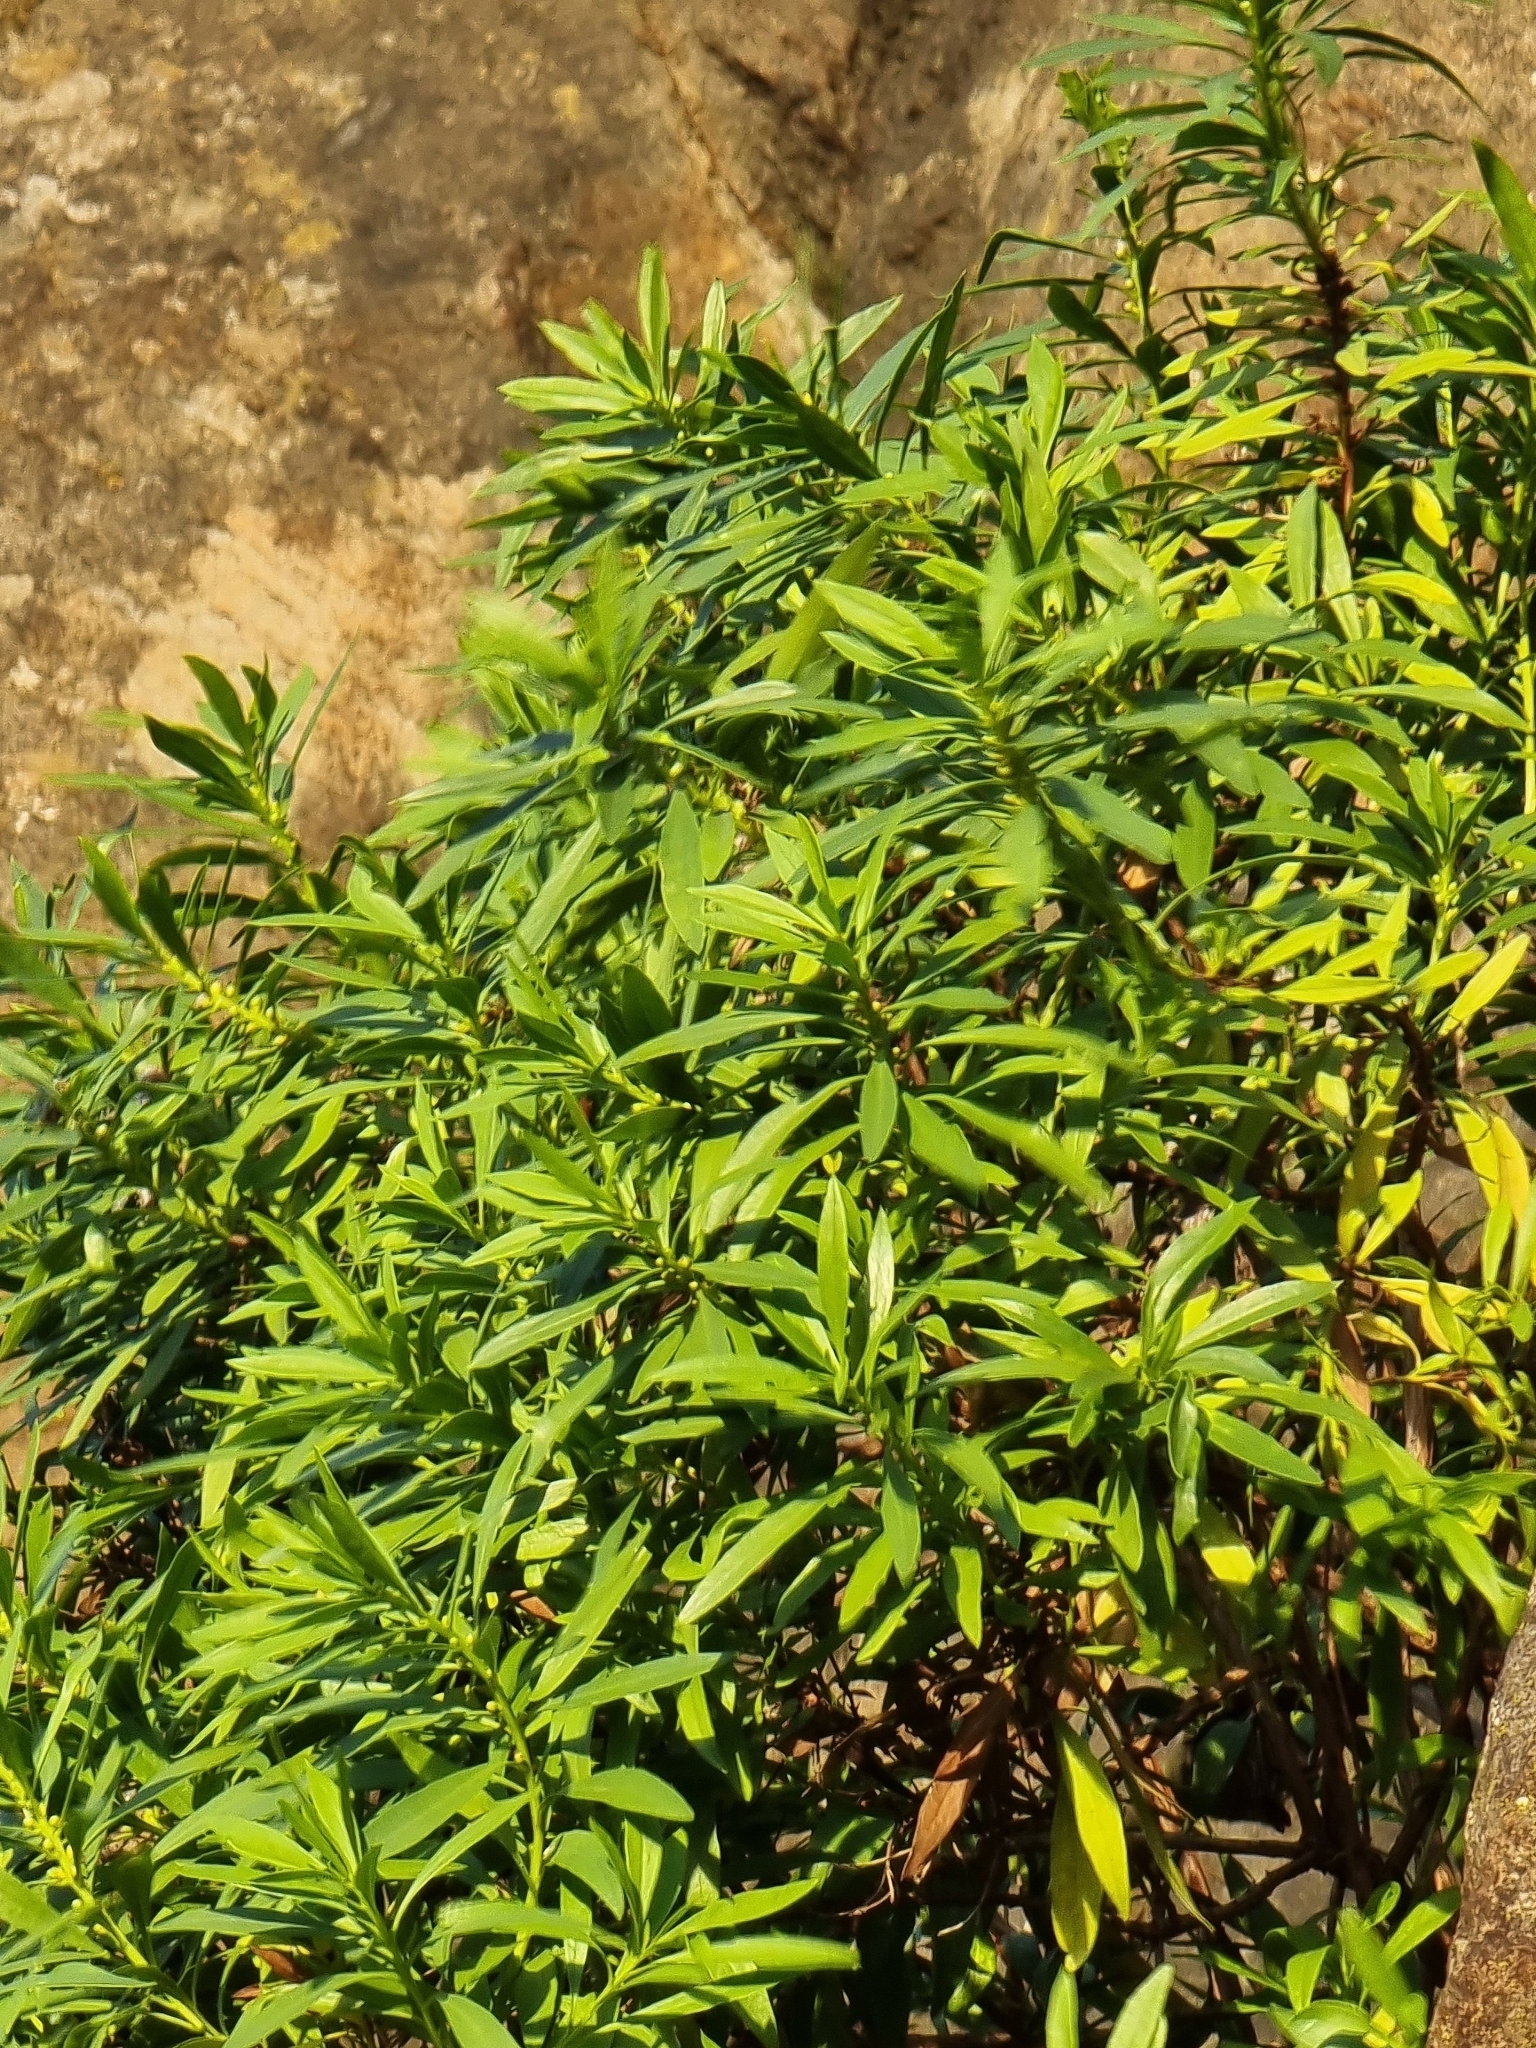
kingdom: Plantae
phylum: Tracheophyta
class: Magnoliopsida
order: Lamiales
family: Plantaginaceae
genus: Globularia
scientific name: Globularia salicina
